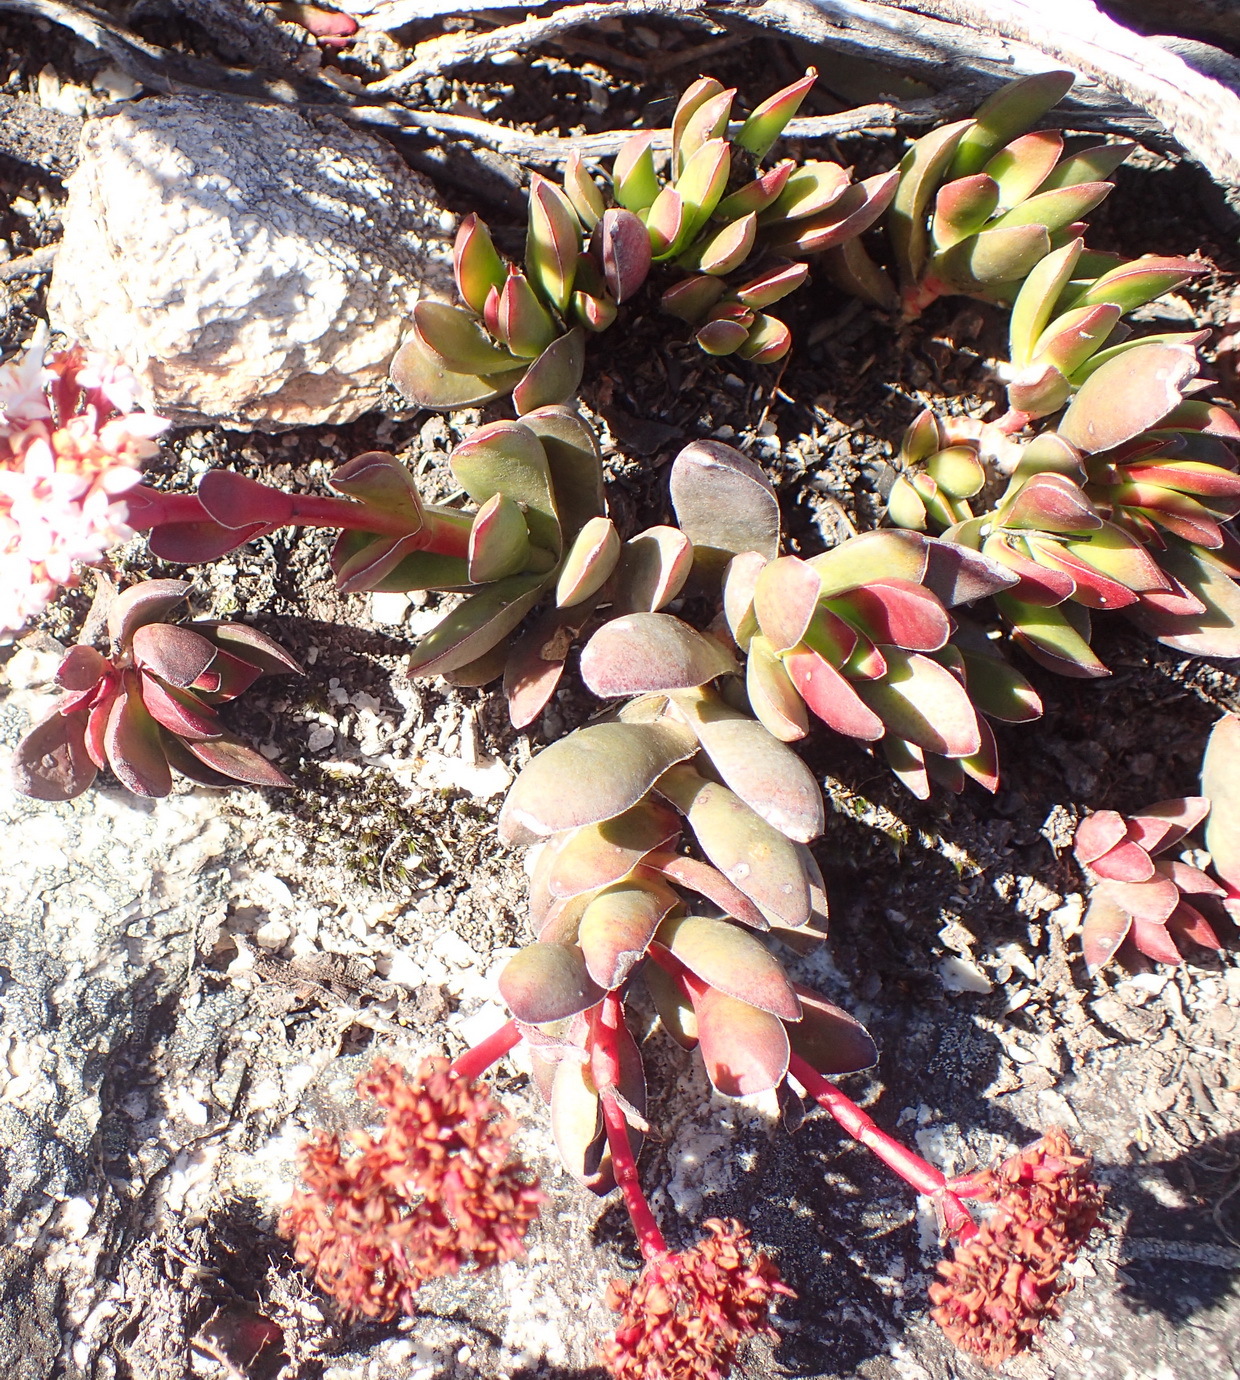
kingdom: Plantae
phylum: Tracheophyta
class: Magnoliopsida
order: Saxifragales
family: Crassulaceae
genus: Crassula
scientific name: Crassula rubricaulis
